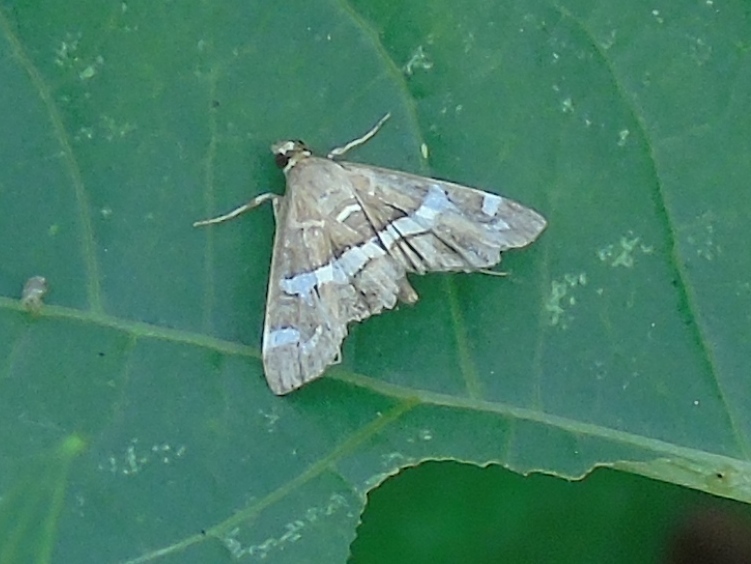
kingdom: Animalia
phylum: Arthropoda
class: Insecta
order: Lepidoptera
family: Crambidae
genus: Spoladea
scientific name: Spoladea recurvalis
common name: Beet webworm moth
